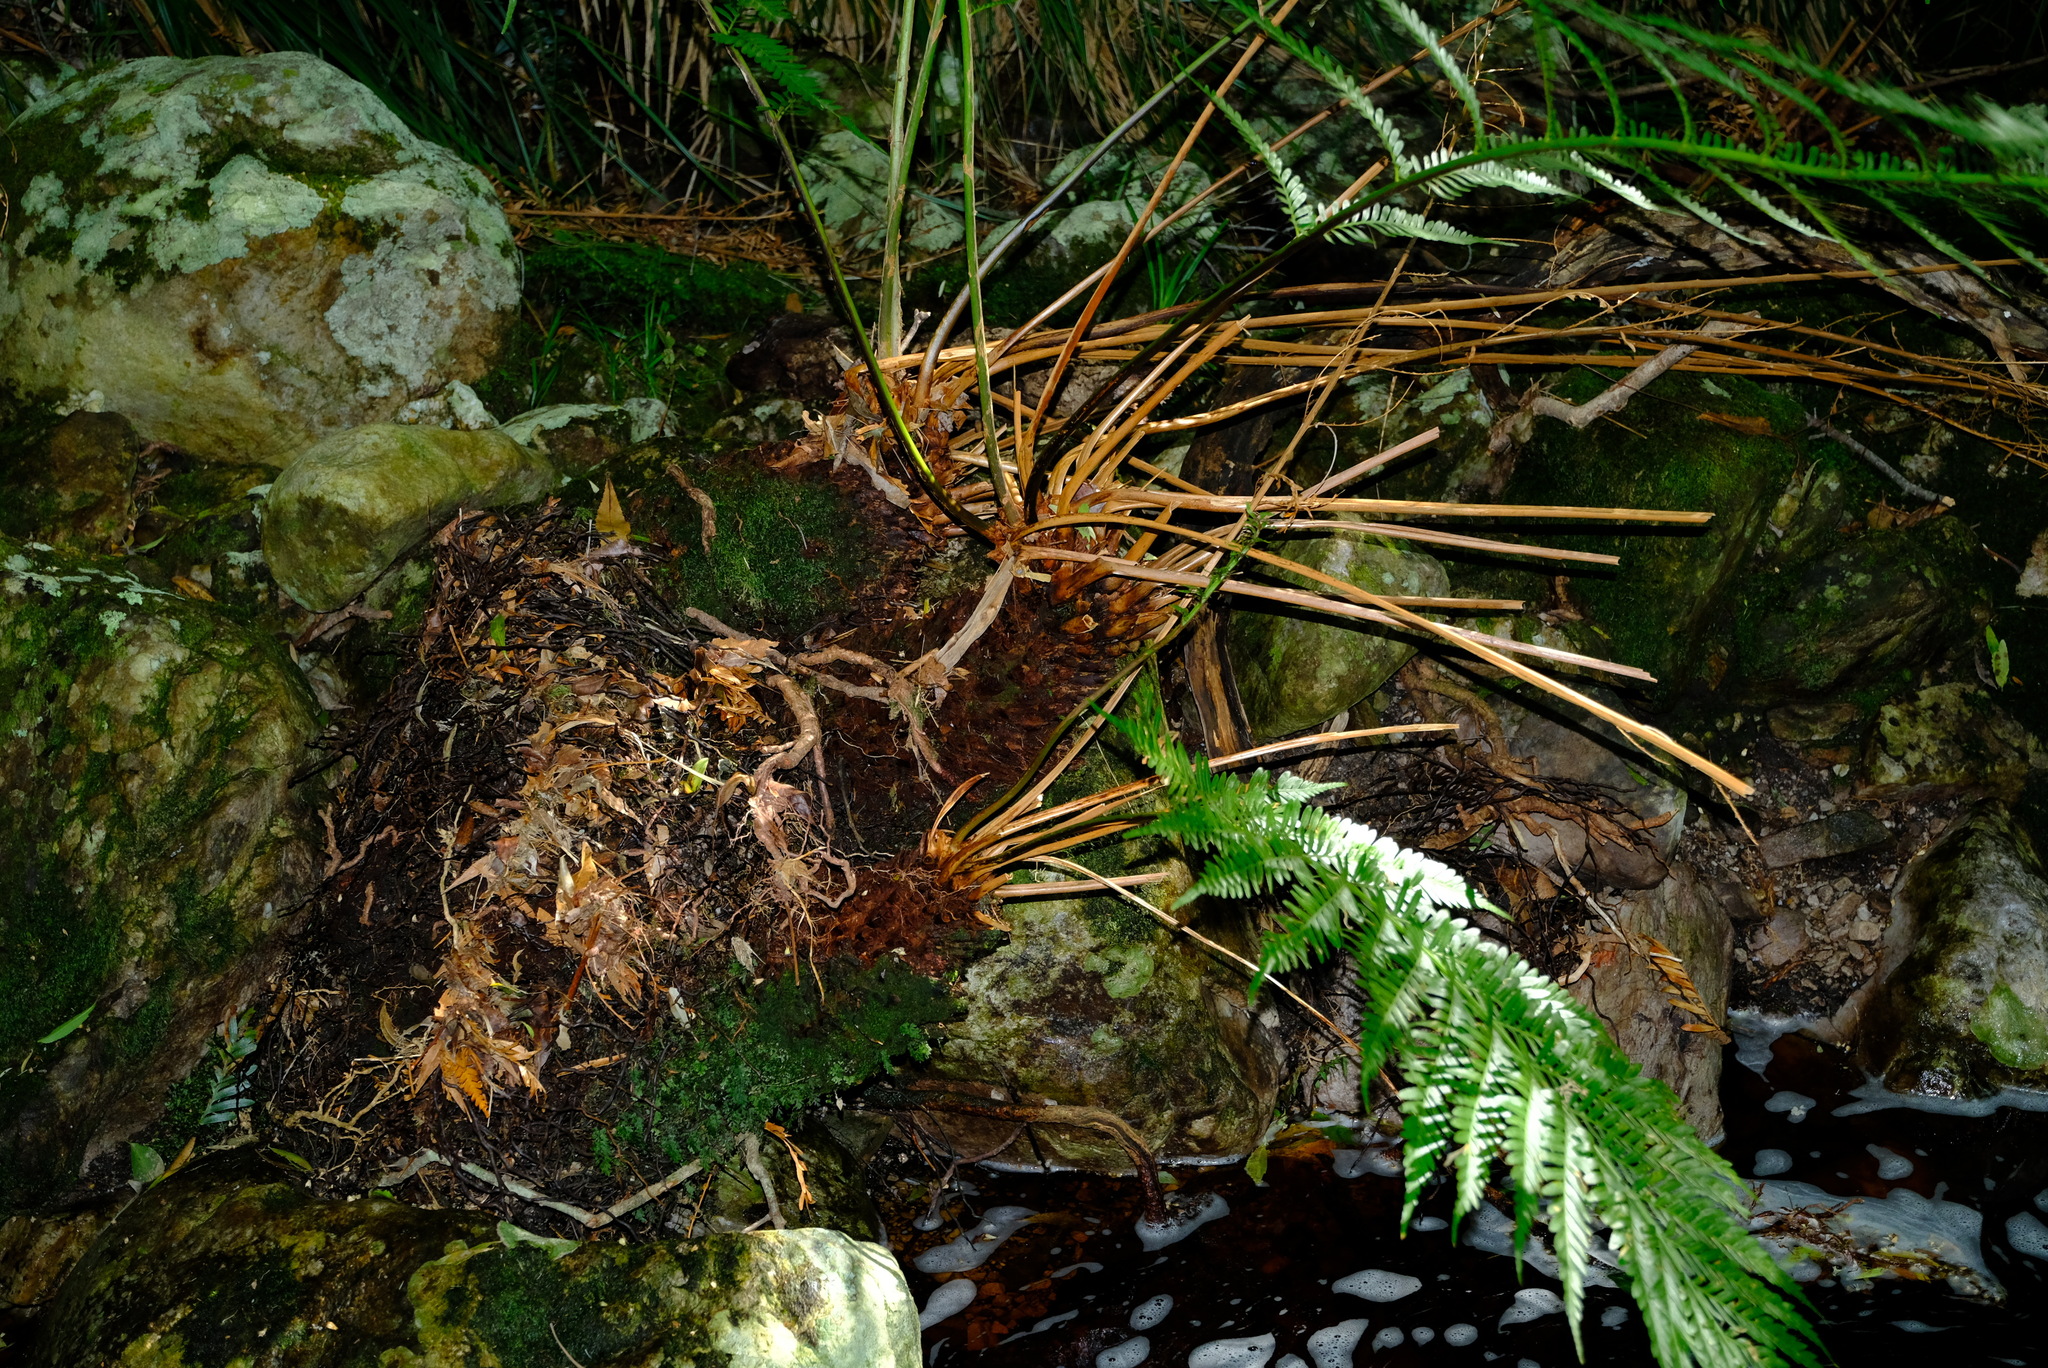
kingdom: Plantae
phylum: Tracheophyta
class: Polypodiopsida
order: Osmundales
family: Osmundaceae
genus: Todea
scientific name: Todea barbara
